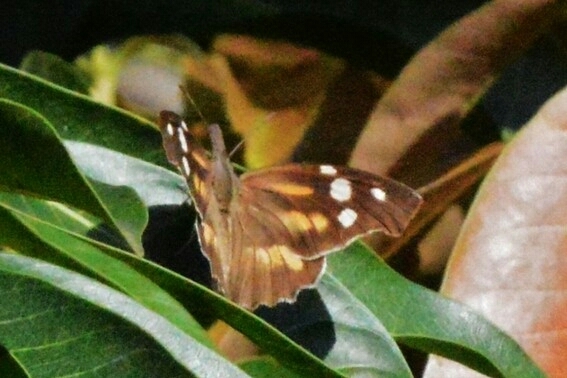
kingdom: Animalia
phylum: Arthropoda
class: Insecta
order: Lepidoptera
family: Nymphalidae
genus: Libytheana
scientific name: Libytheana carinenta
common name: American snout
